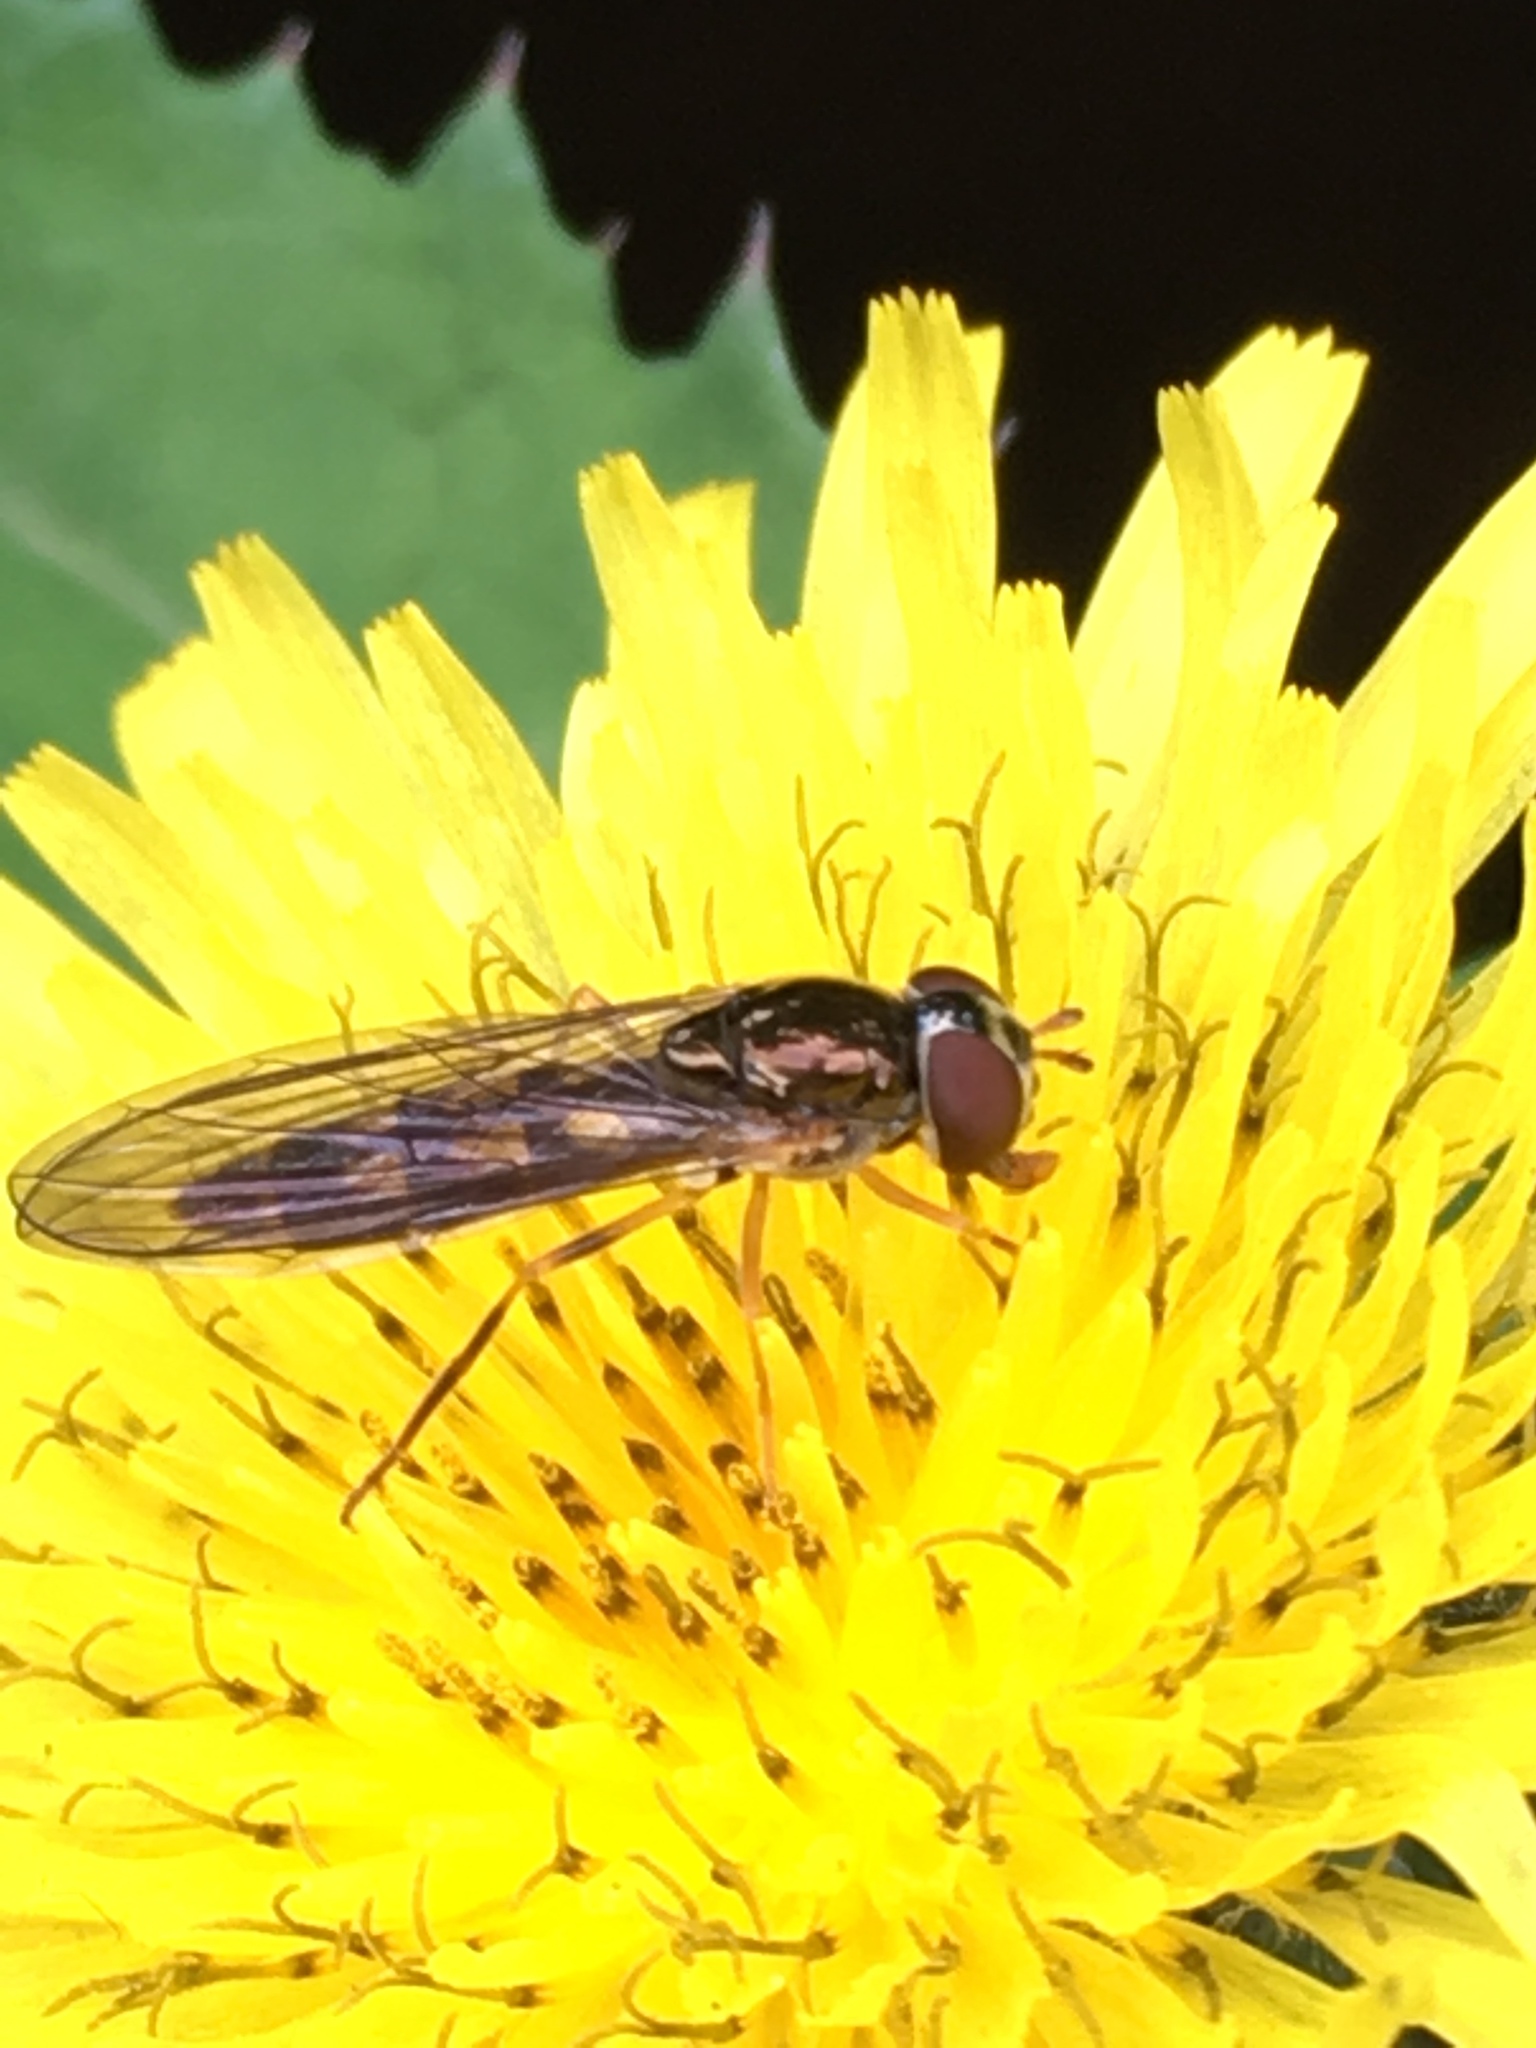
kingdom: Animalia
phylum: Arthropoda
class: Insecta
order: Diptera
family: Syrphidae
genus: Melanostoma
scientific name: Melanostoma scalare
